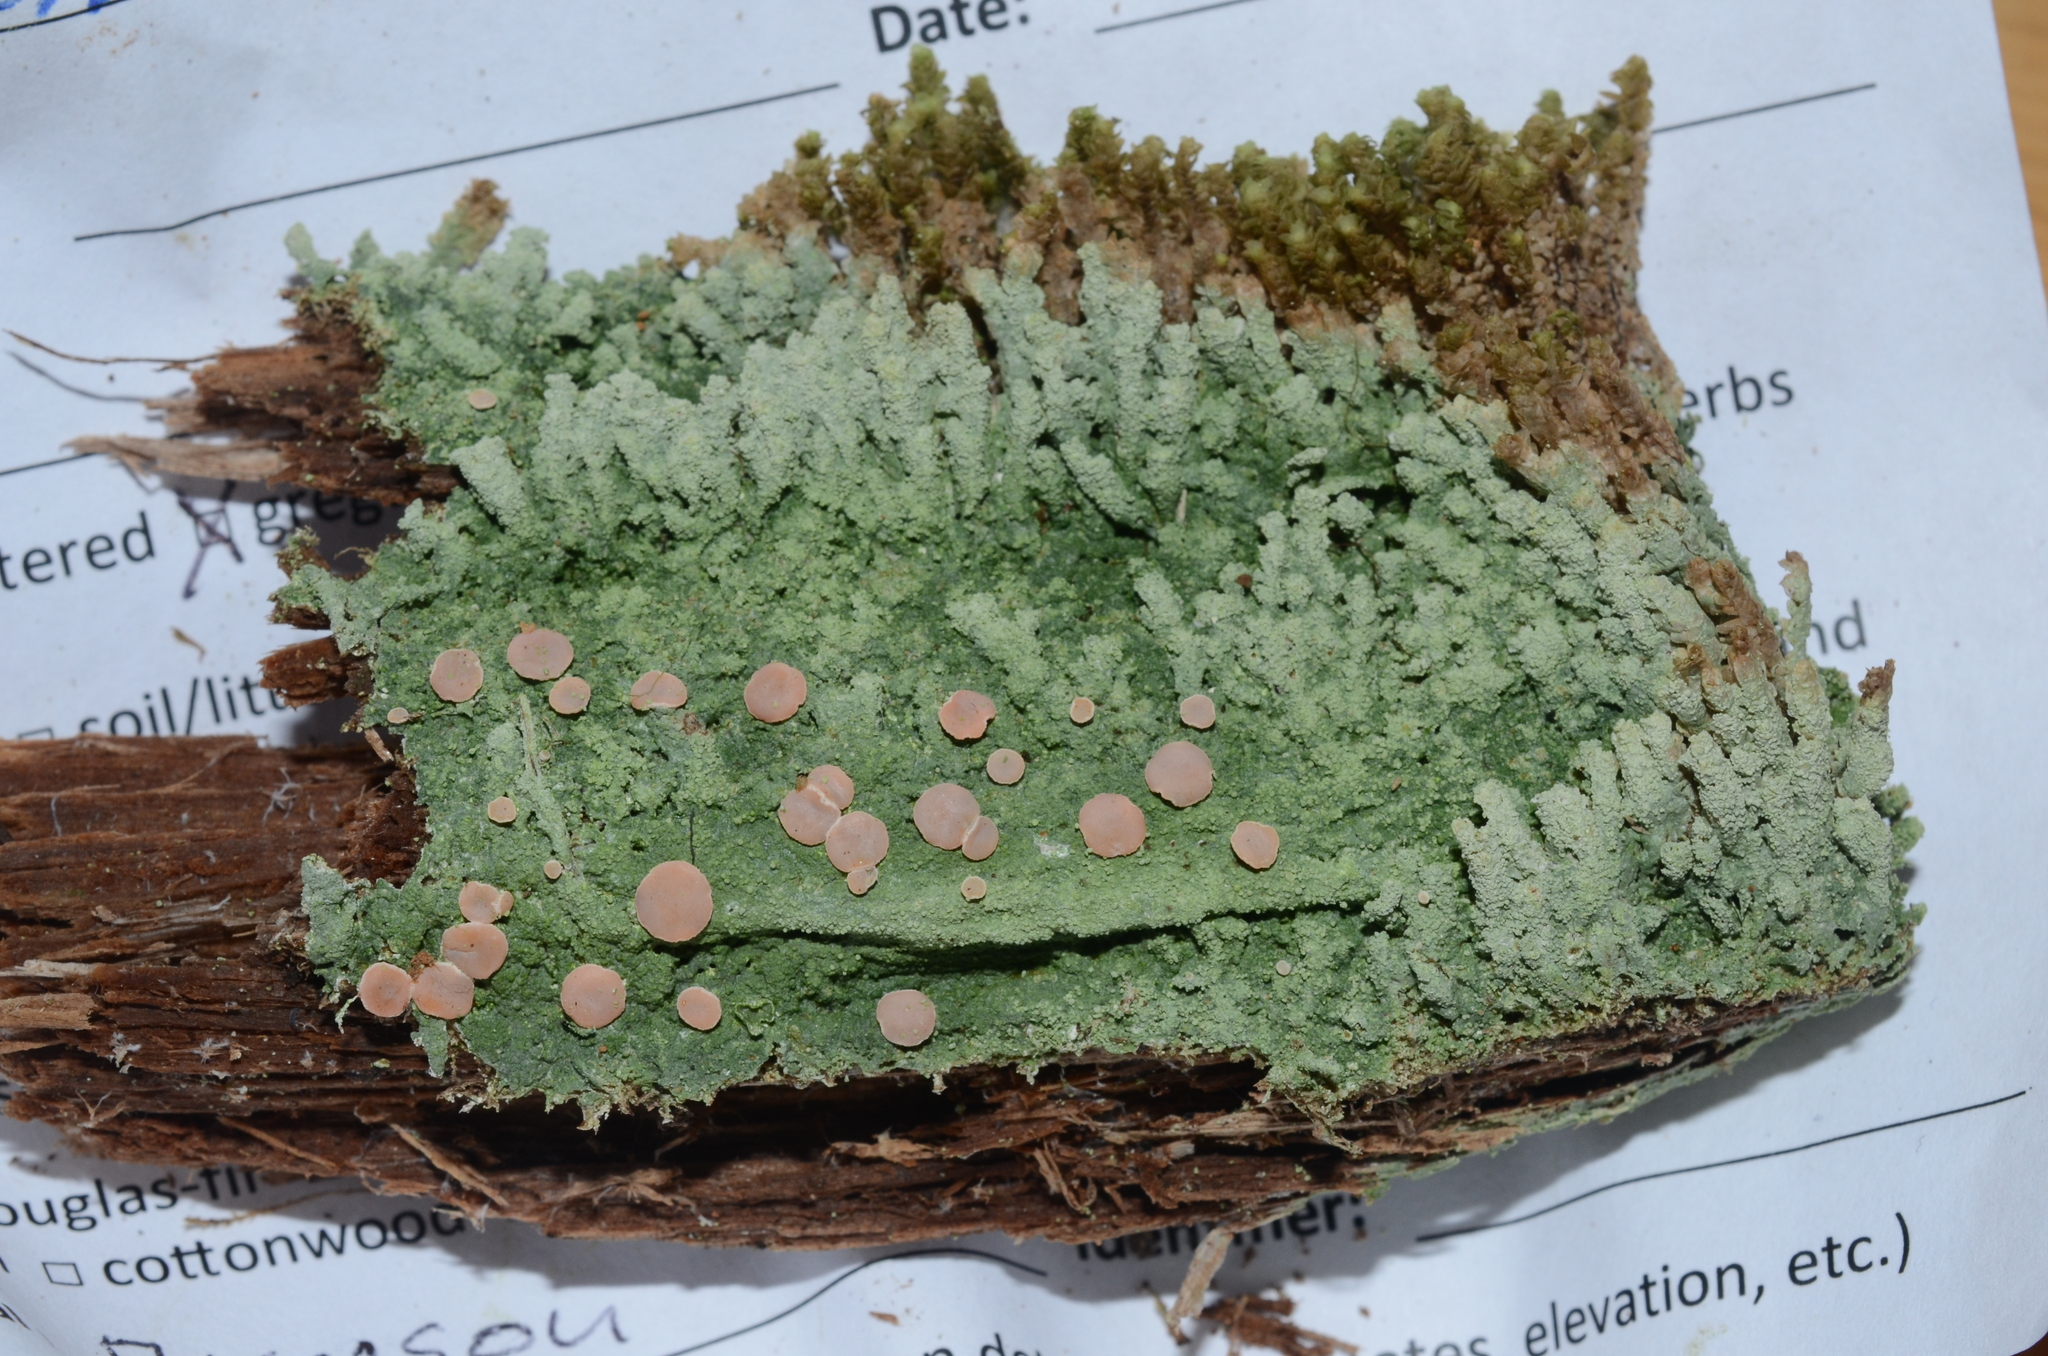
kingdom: Fungi
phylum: Ascomycota
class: Lecanoromycetes
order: Pertusariales
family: Icmadophilaceae
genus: Icmadophila
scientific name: Icmadophila ericetorum
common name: Candy lichen
